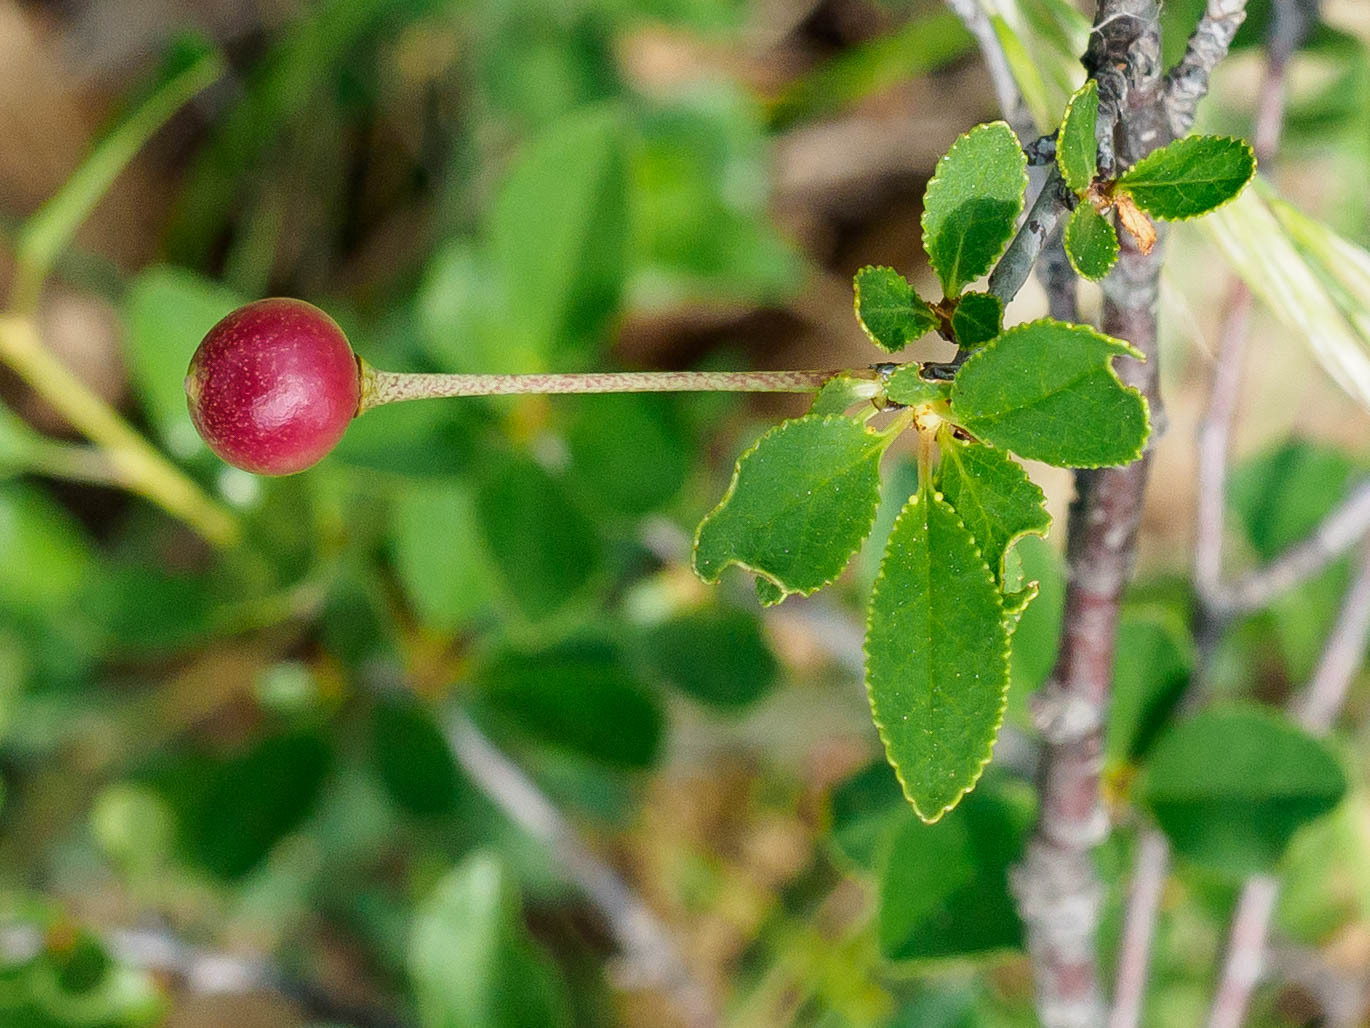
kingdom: Plantae
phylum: Tracheophyta
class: Magnoliopsida
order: Rosales
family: Rosaceae
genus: Prunus
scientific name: Prunus fruticosa
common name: European dwarf cherry
